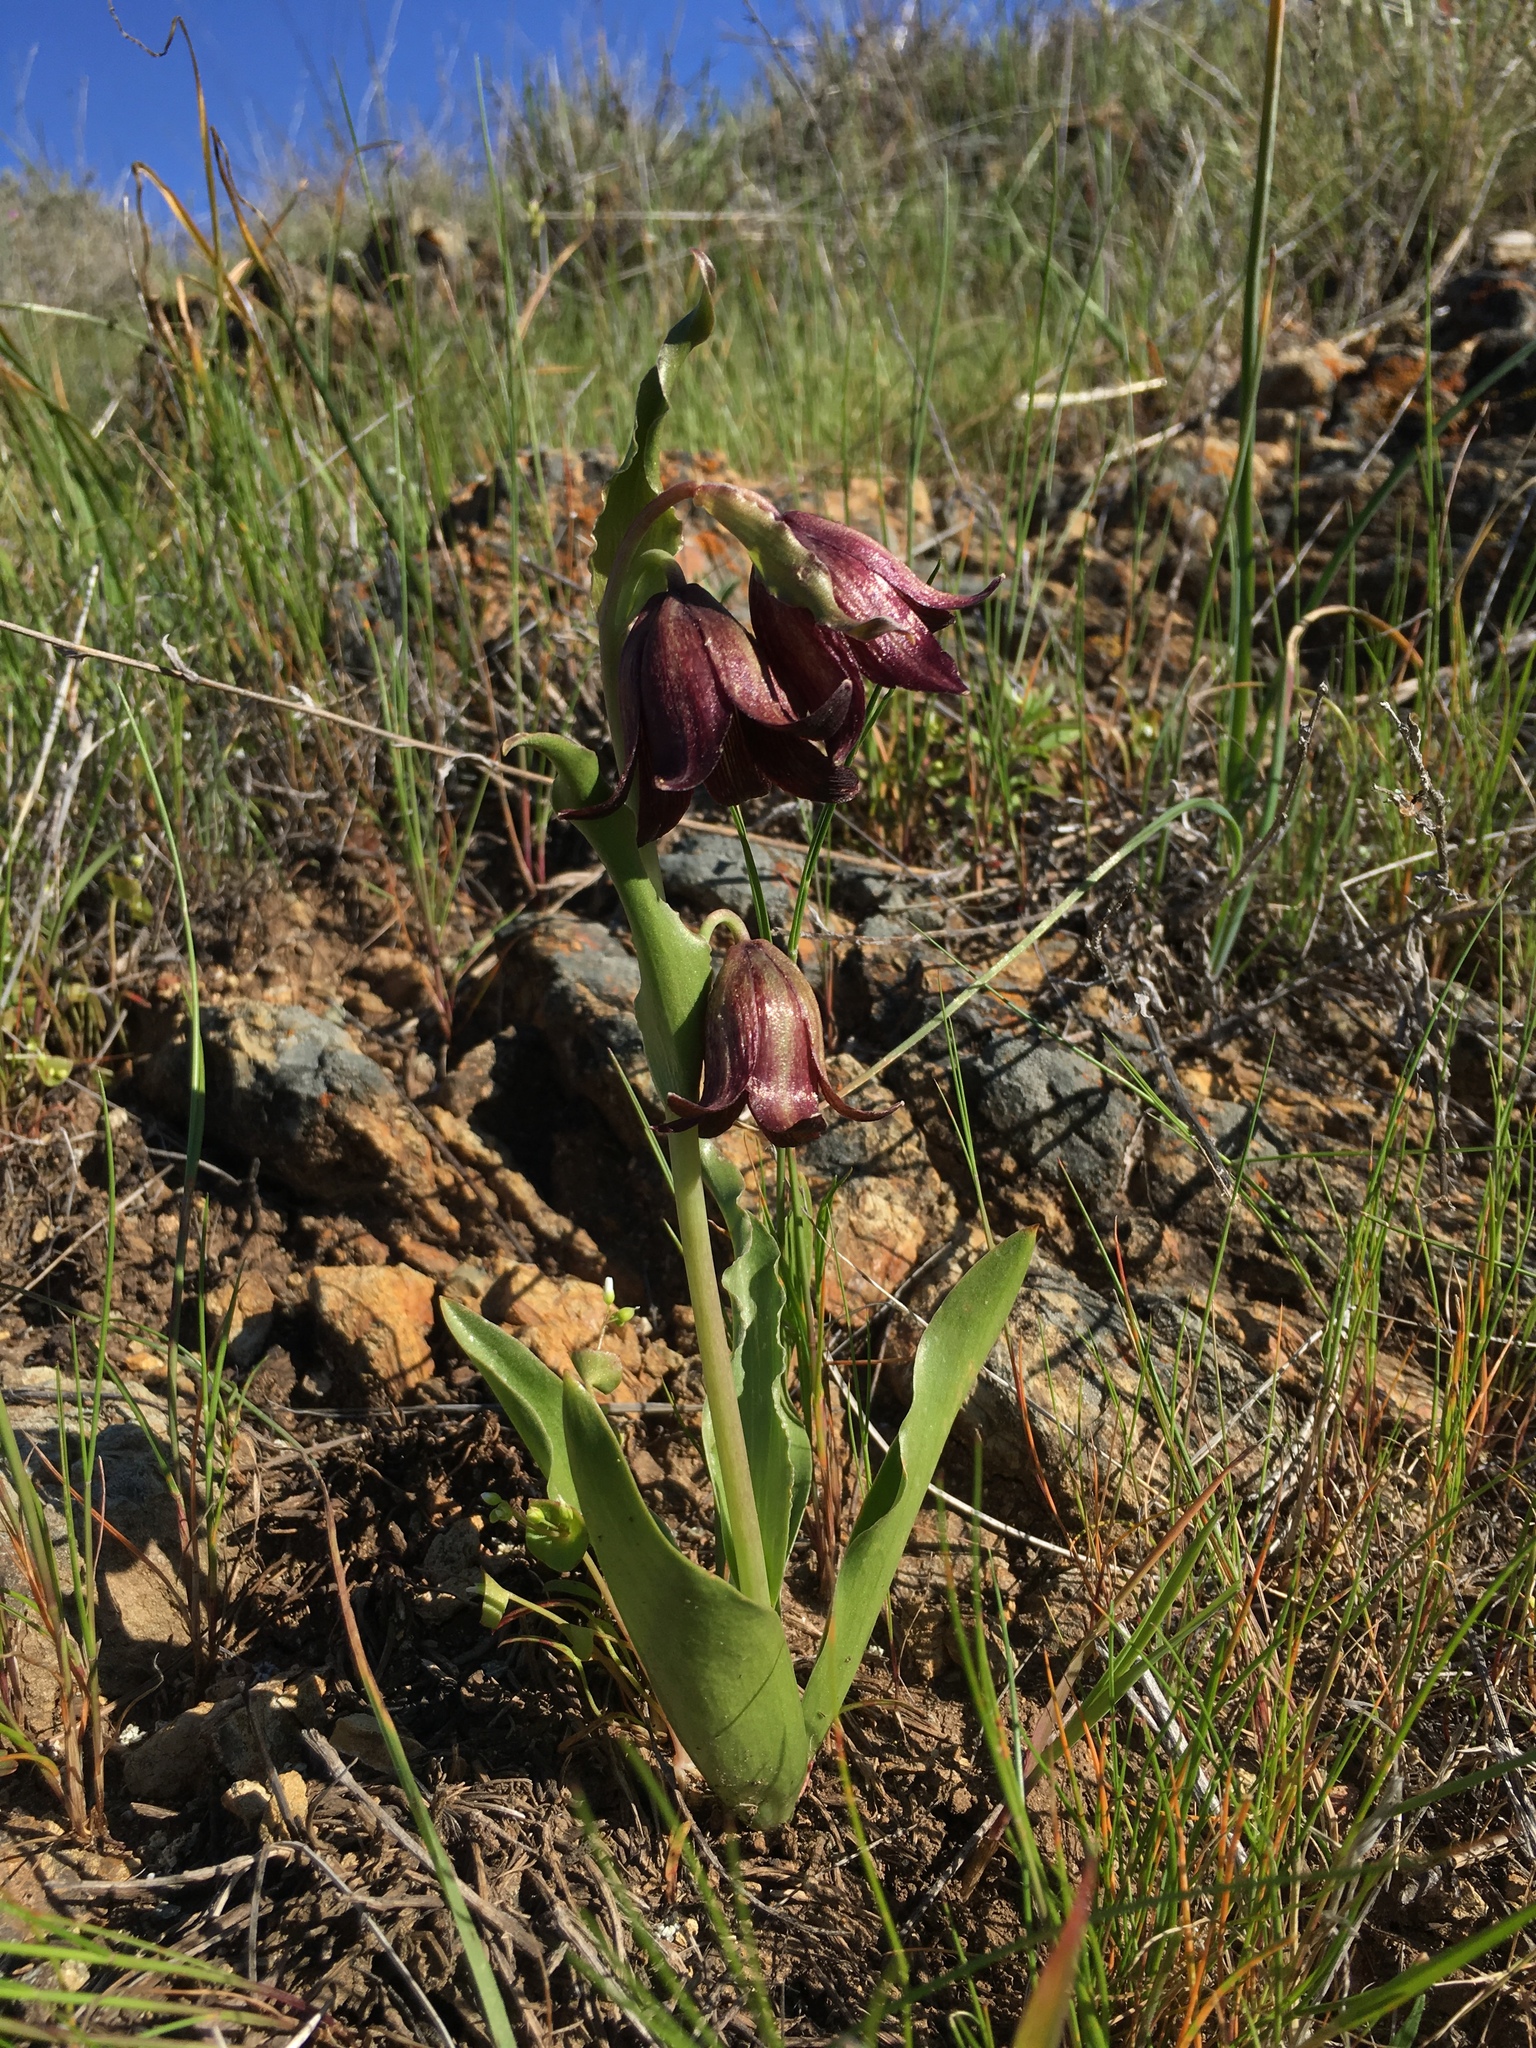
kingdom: Plantae
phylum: Tracheophyta
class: Liliopsida
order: Liliales
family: Liliaceae
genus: Fritillaria
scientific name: Fritillaria biflora
